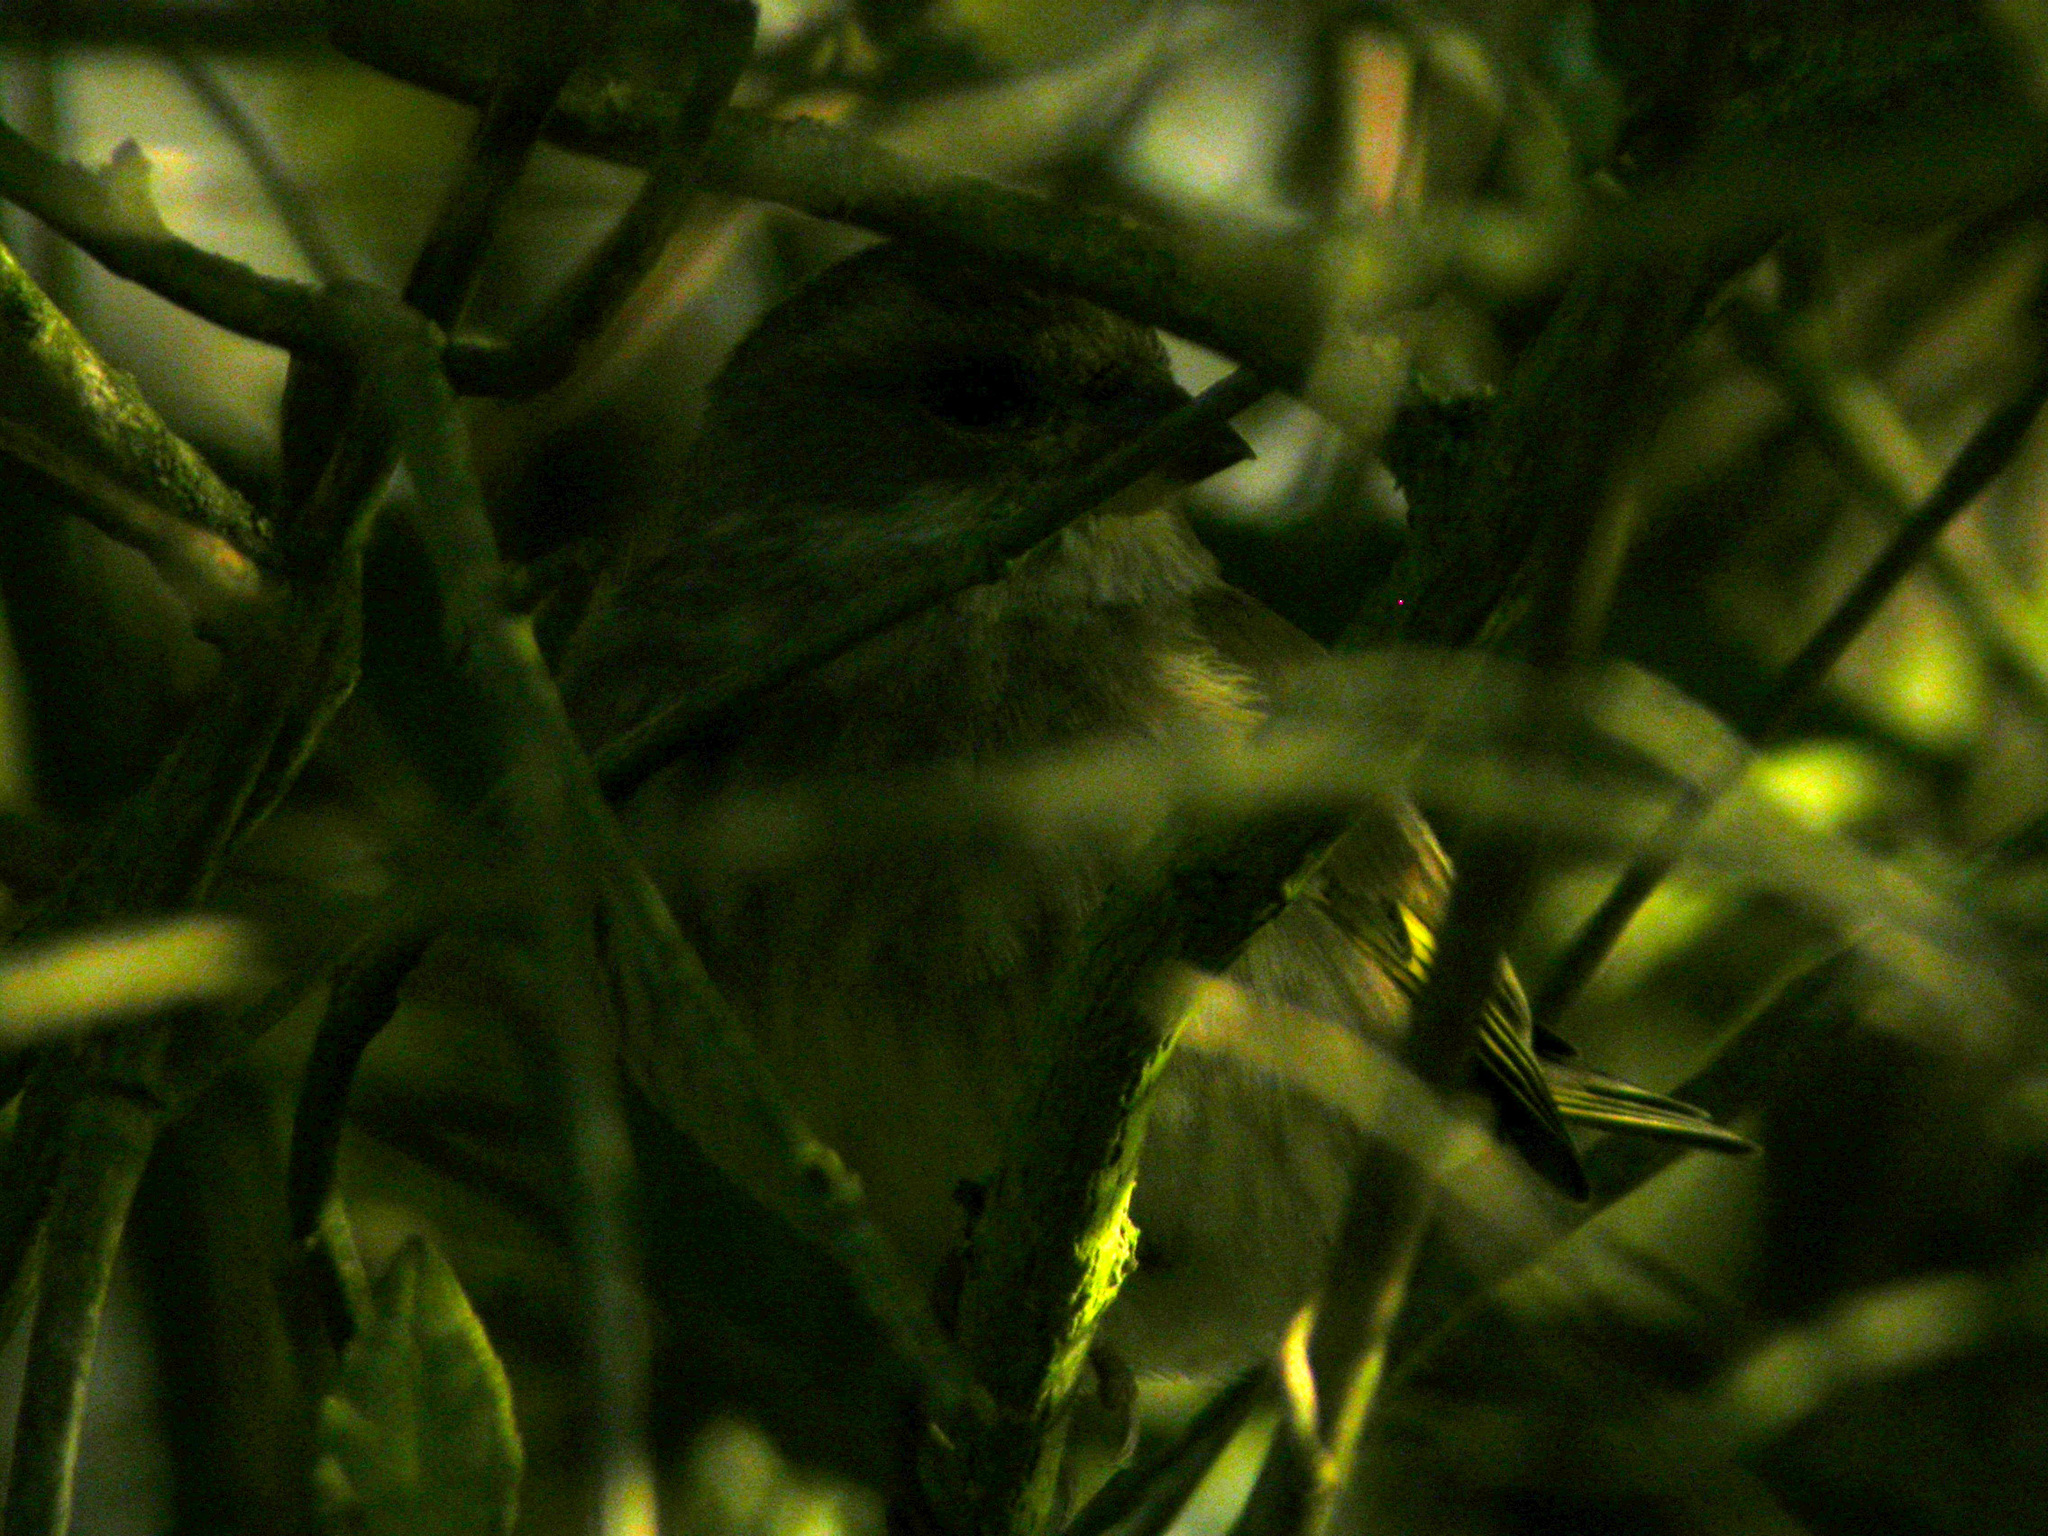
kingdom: Plantae
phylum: Tracheophyta
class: Liliopsida
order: Poales
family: Poaceae
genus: Chloris
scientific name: Chloris chloris
